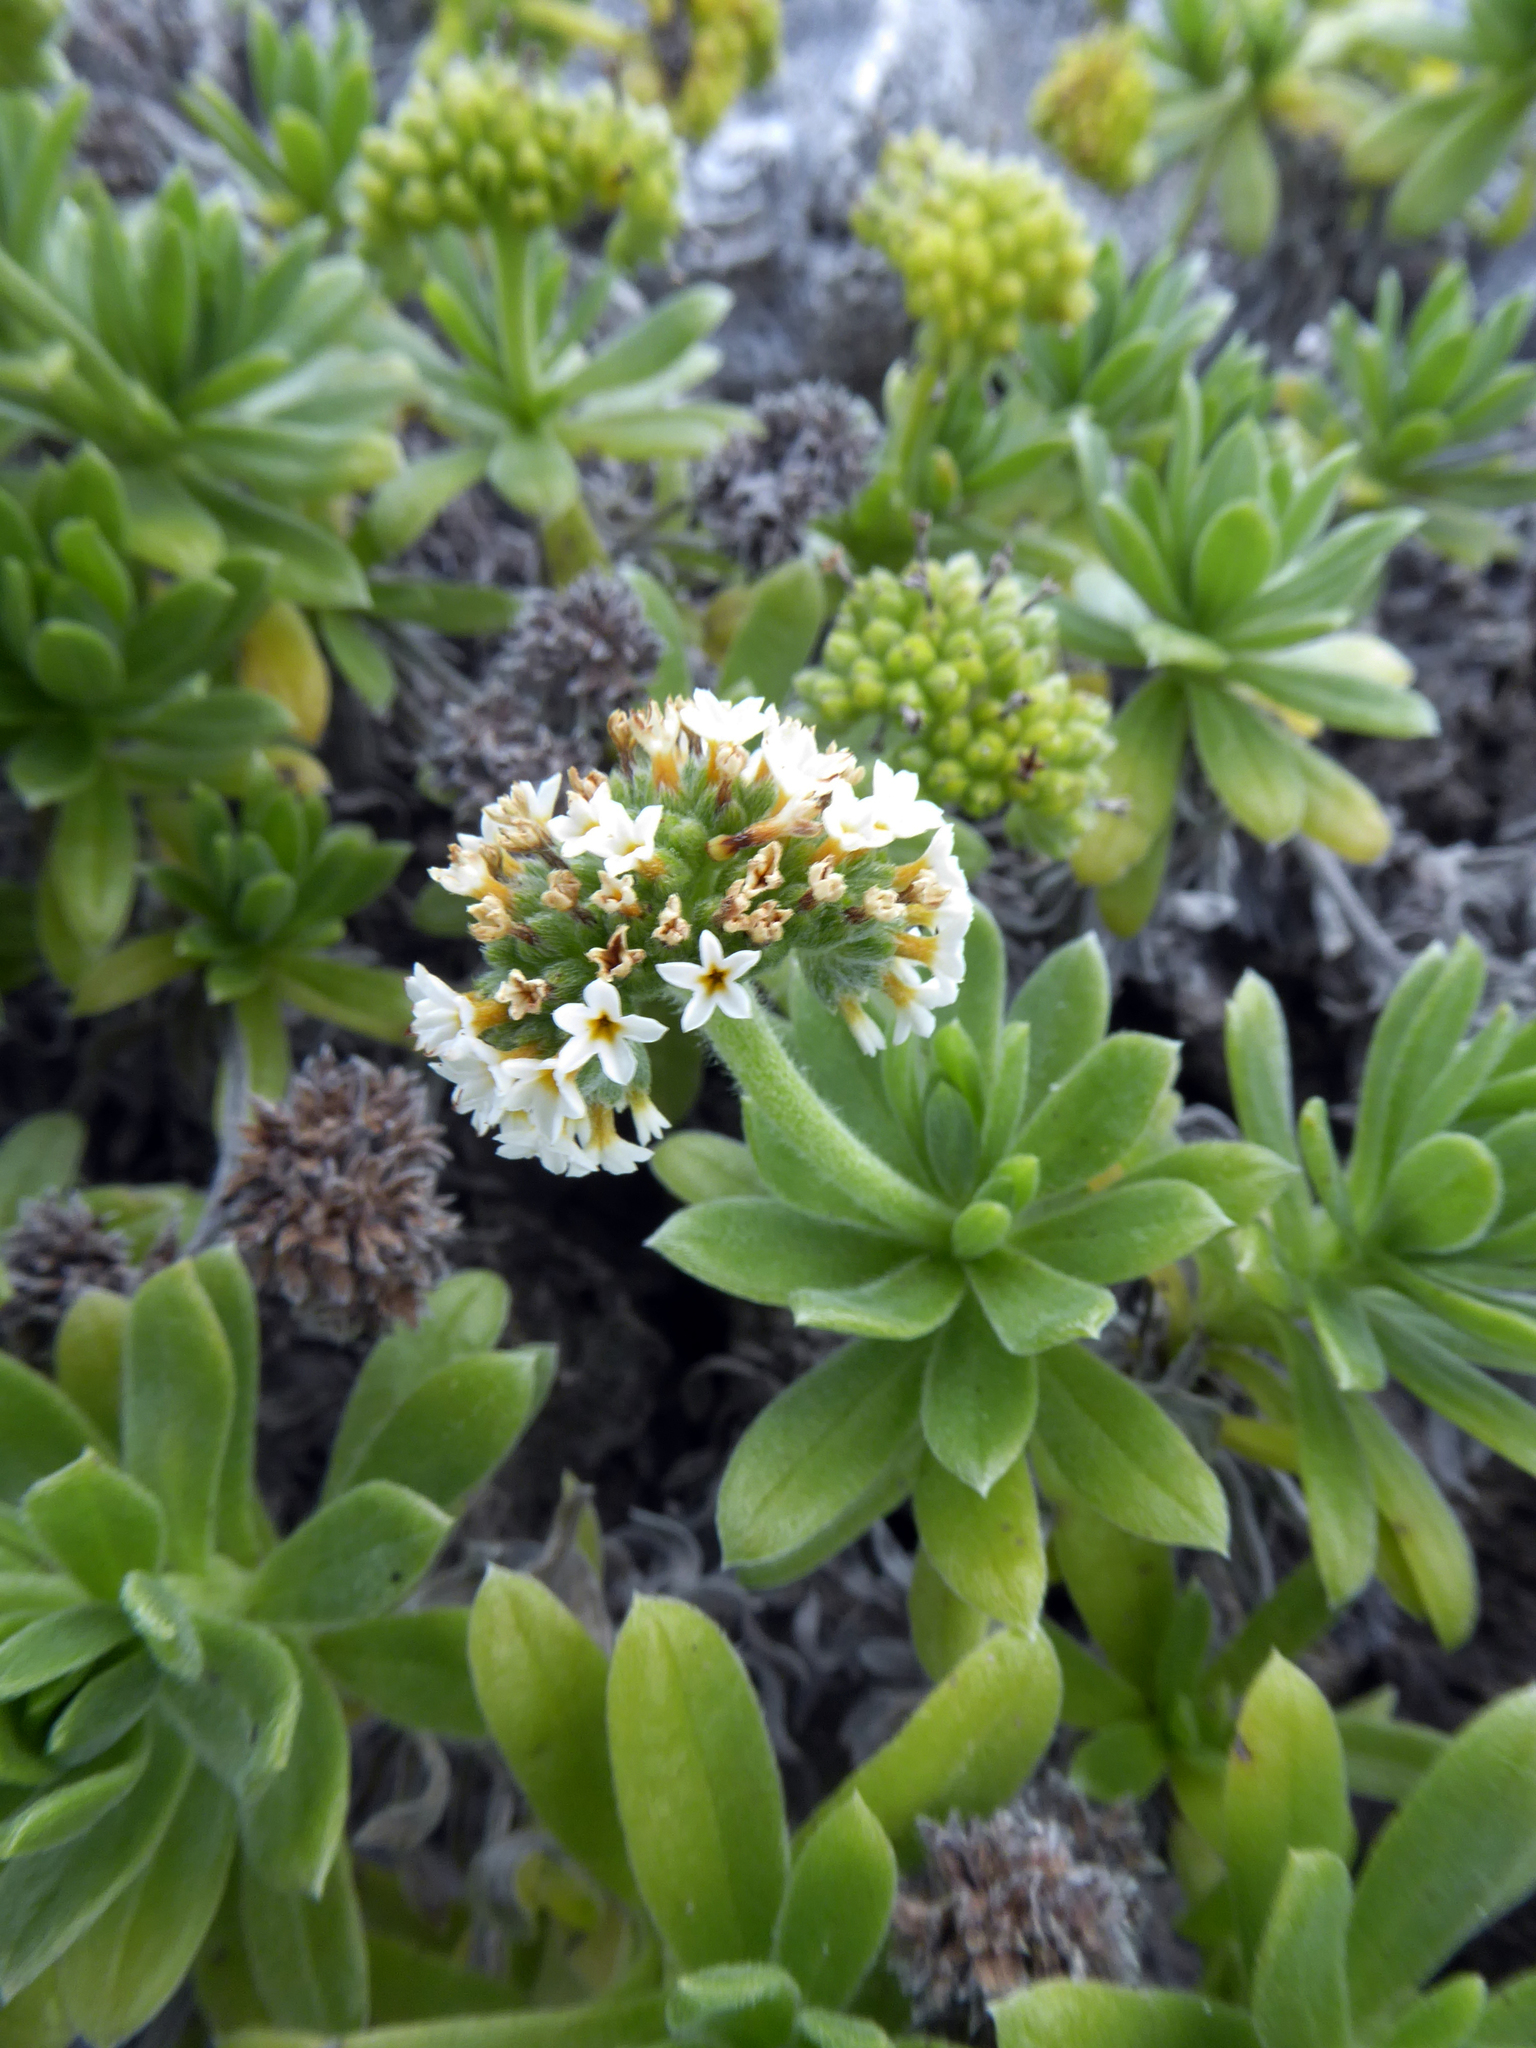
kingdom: Plantae
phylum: Tracheophyta
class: Magnoliopsida
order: Boraginales
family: Heliotropiaceae
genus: Heliotropium
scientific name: Heliotropium anomalum
